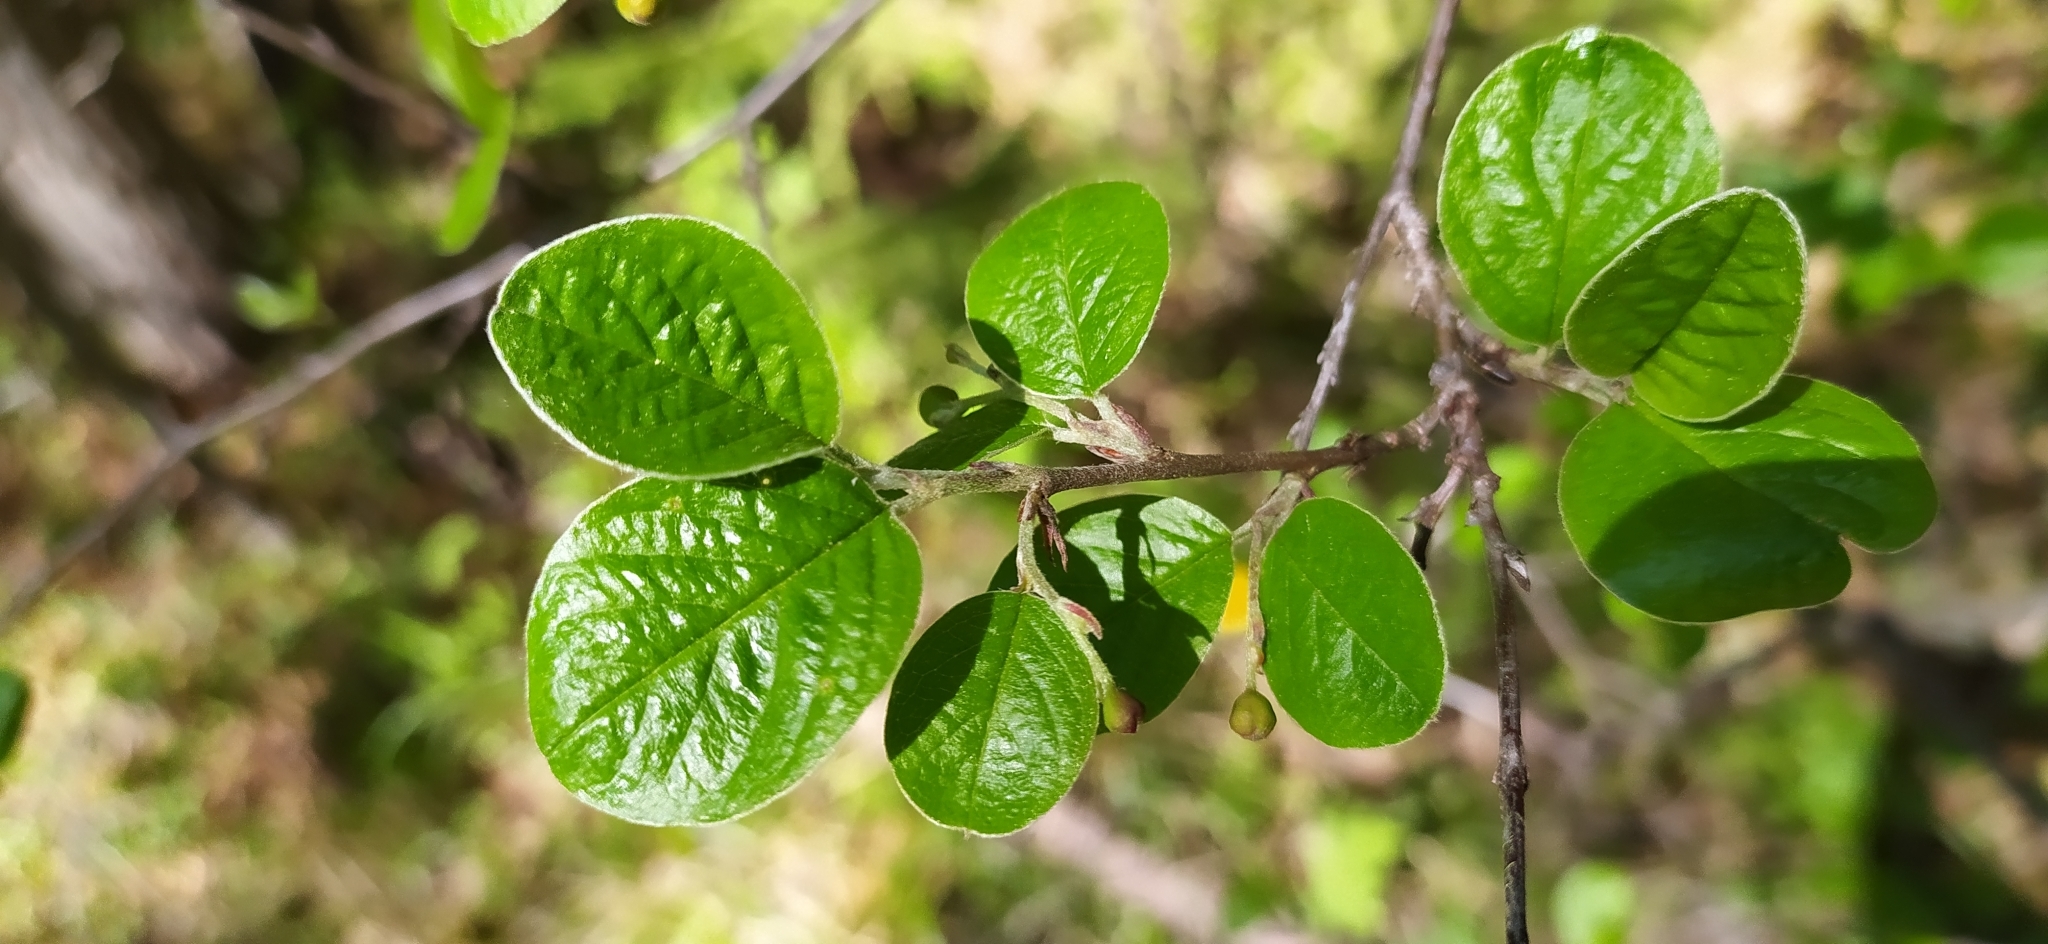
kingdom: Plantae
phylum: Tracheophyta
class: Magnoliopsida
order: Rosales
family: Rosaceae
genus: Cotoneaster
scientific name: Cotoneaster melanocarpus
